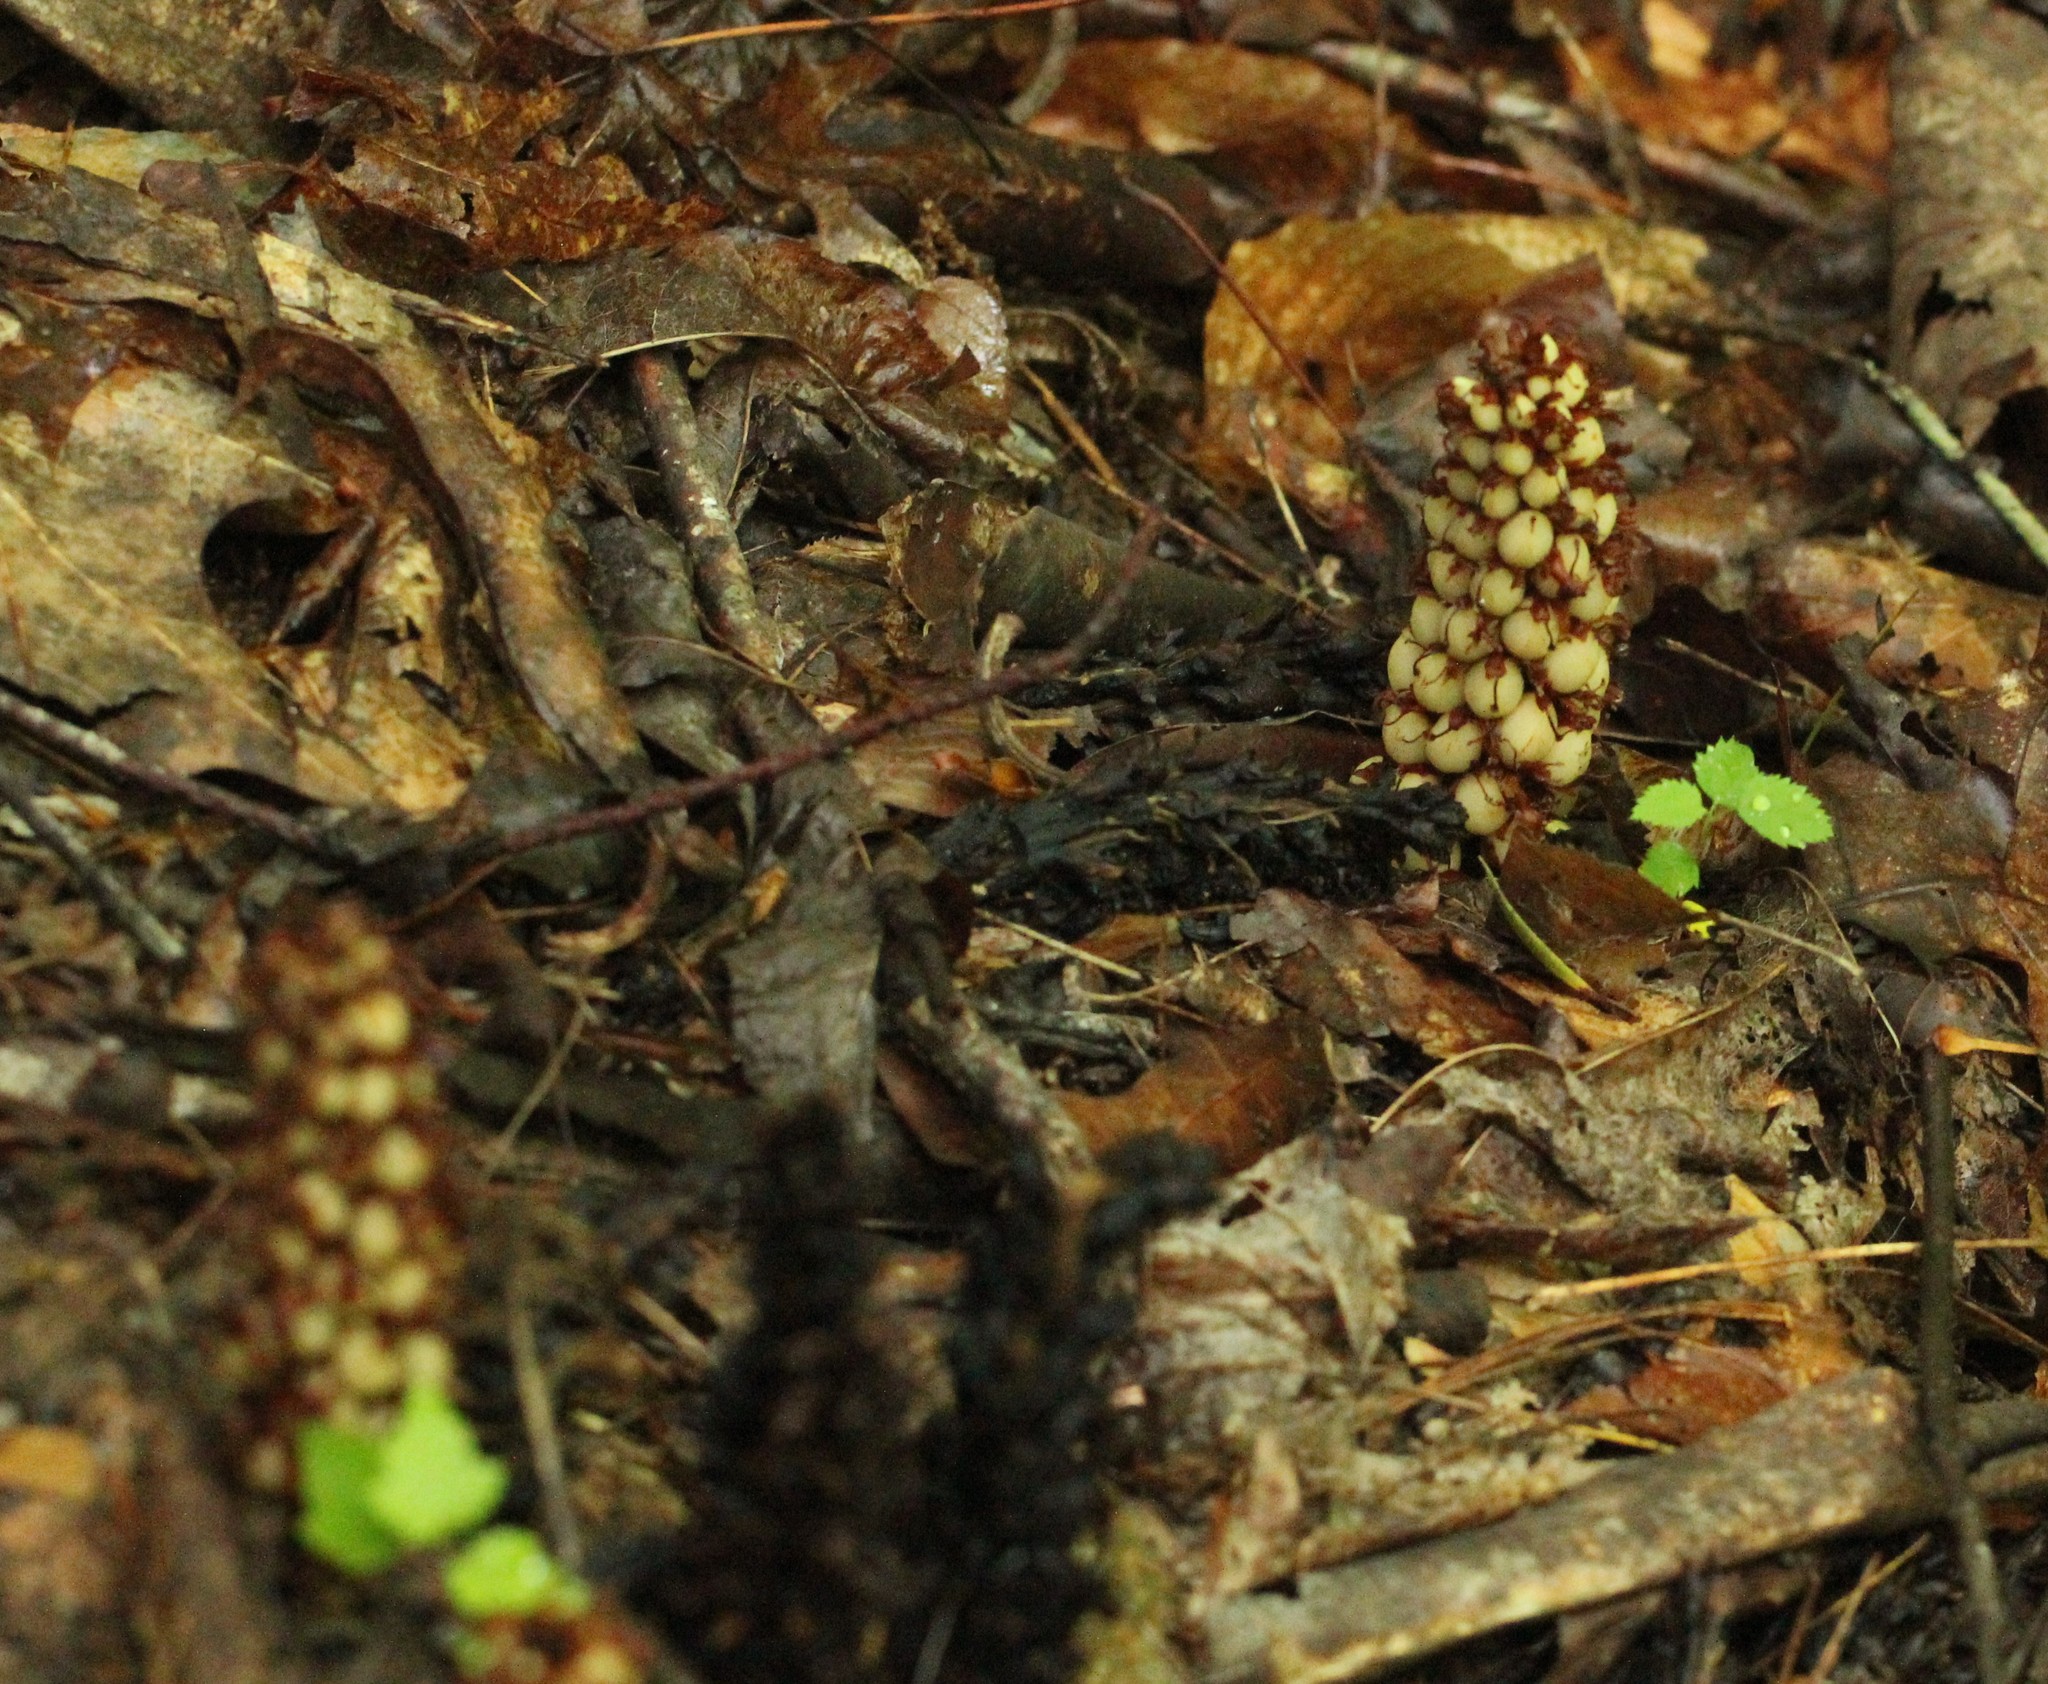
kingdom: Plantae
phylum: Tracheophyta
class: Magnoliopsida
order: Lamiales
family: Orobanchaceae
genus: Conopholis
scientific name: Conopholis americana
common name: American cancer-root
